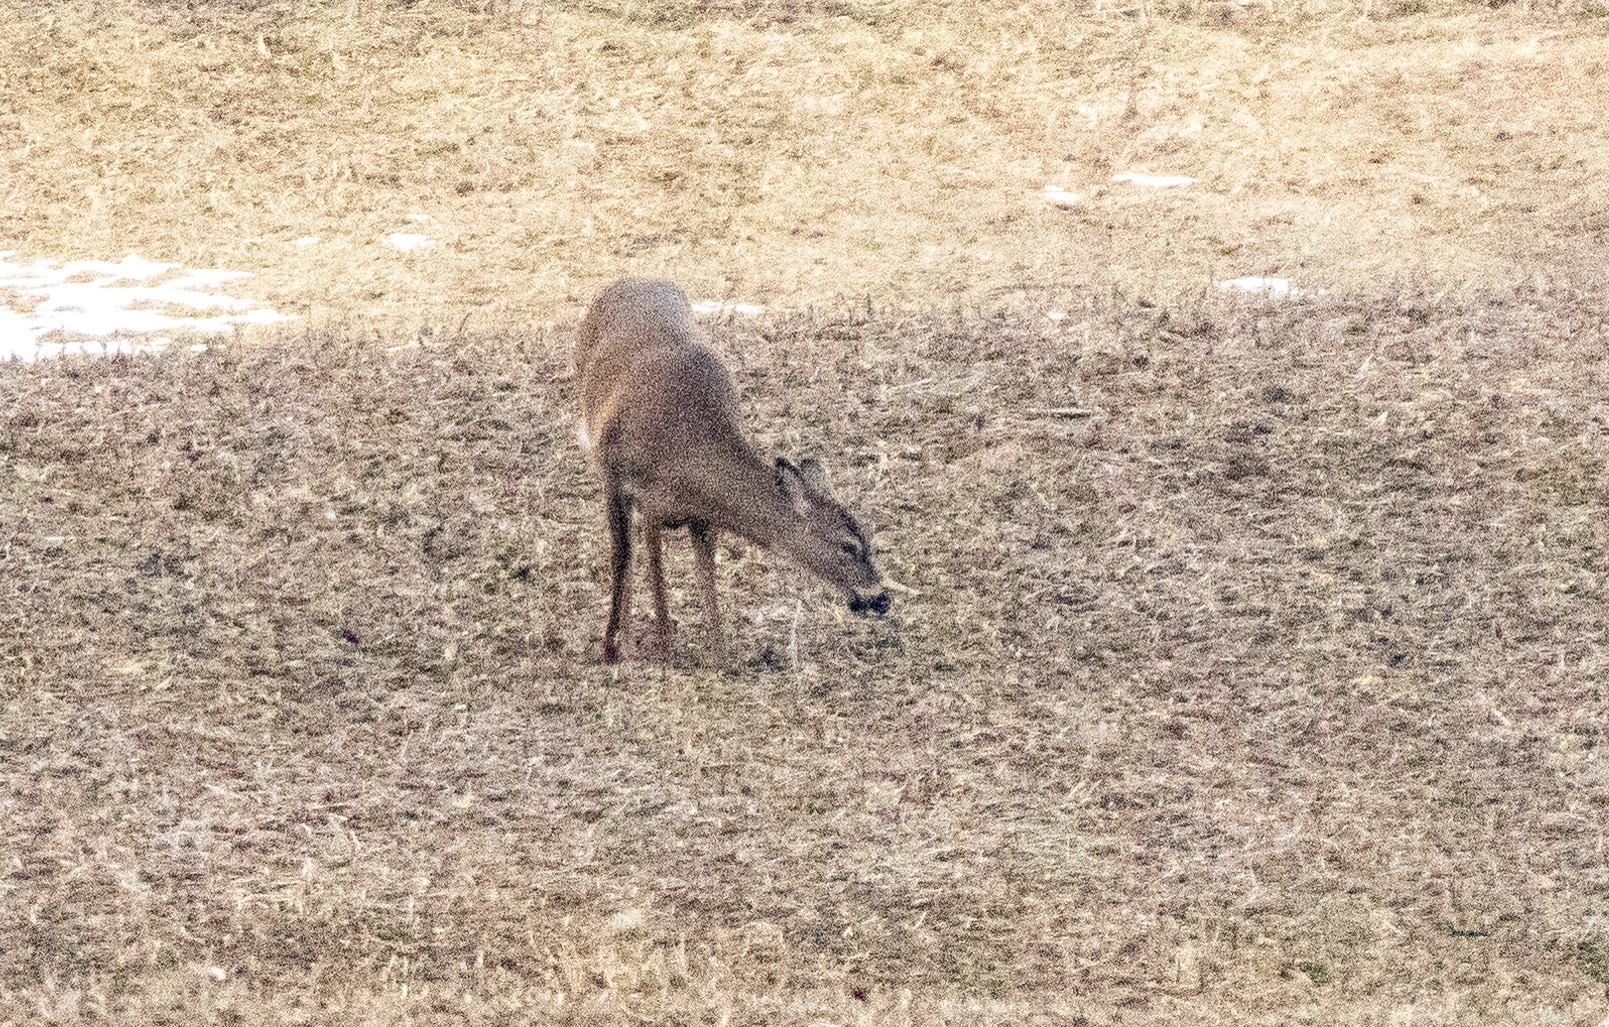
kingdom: Animalia
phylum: Chordata
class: Mammalia
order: Artiodactyla
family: Cervidae
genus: Odocoileus
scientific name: Odocoileus virginianus
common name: White-tailed deer
